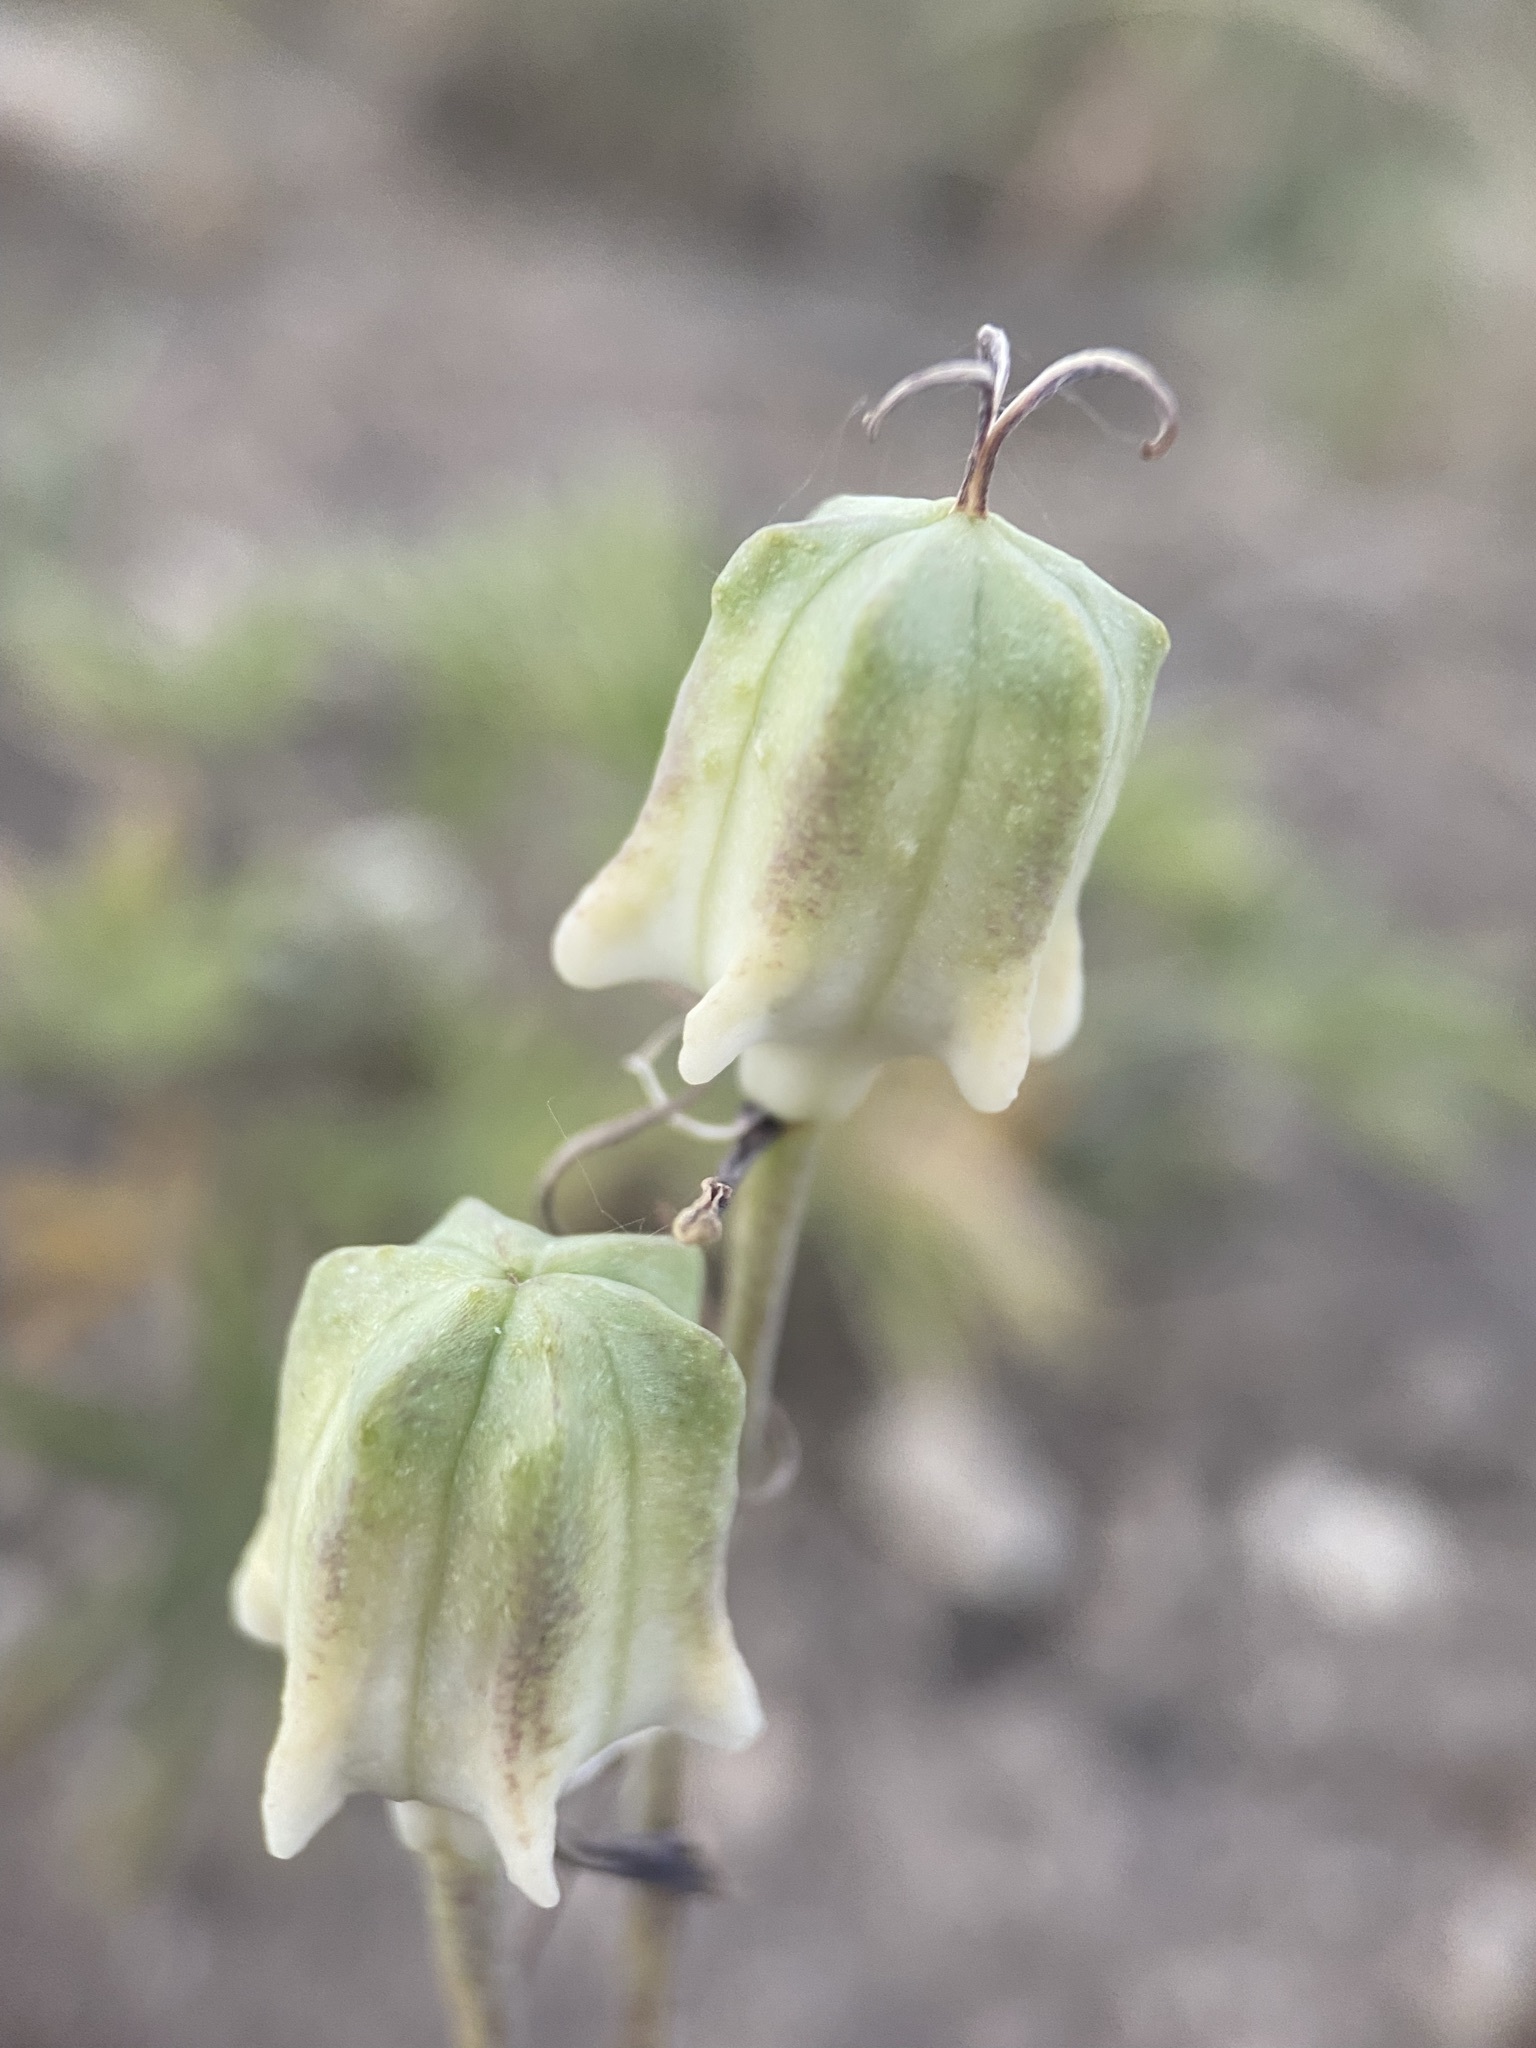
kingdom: Plantae
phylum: Tracheophyta
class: Liliopsida
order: Liliales
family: Liliaceae
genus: Fritillaria
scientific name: Fritillaria atropurpurea
